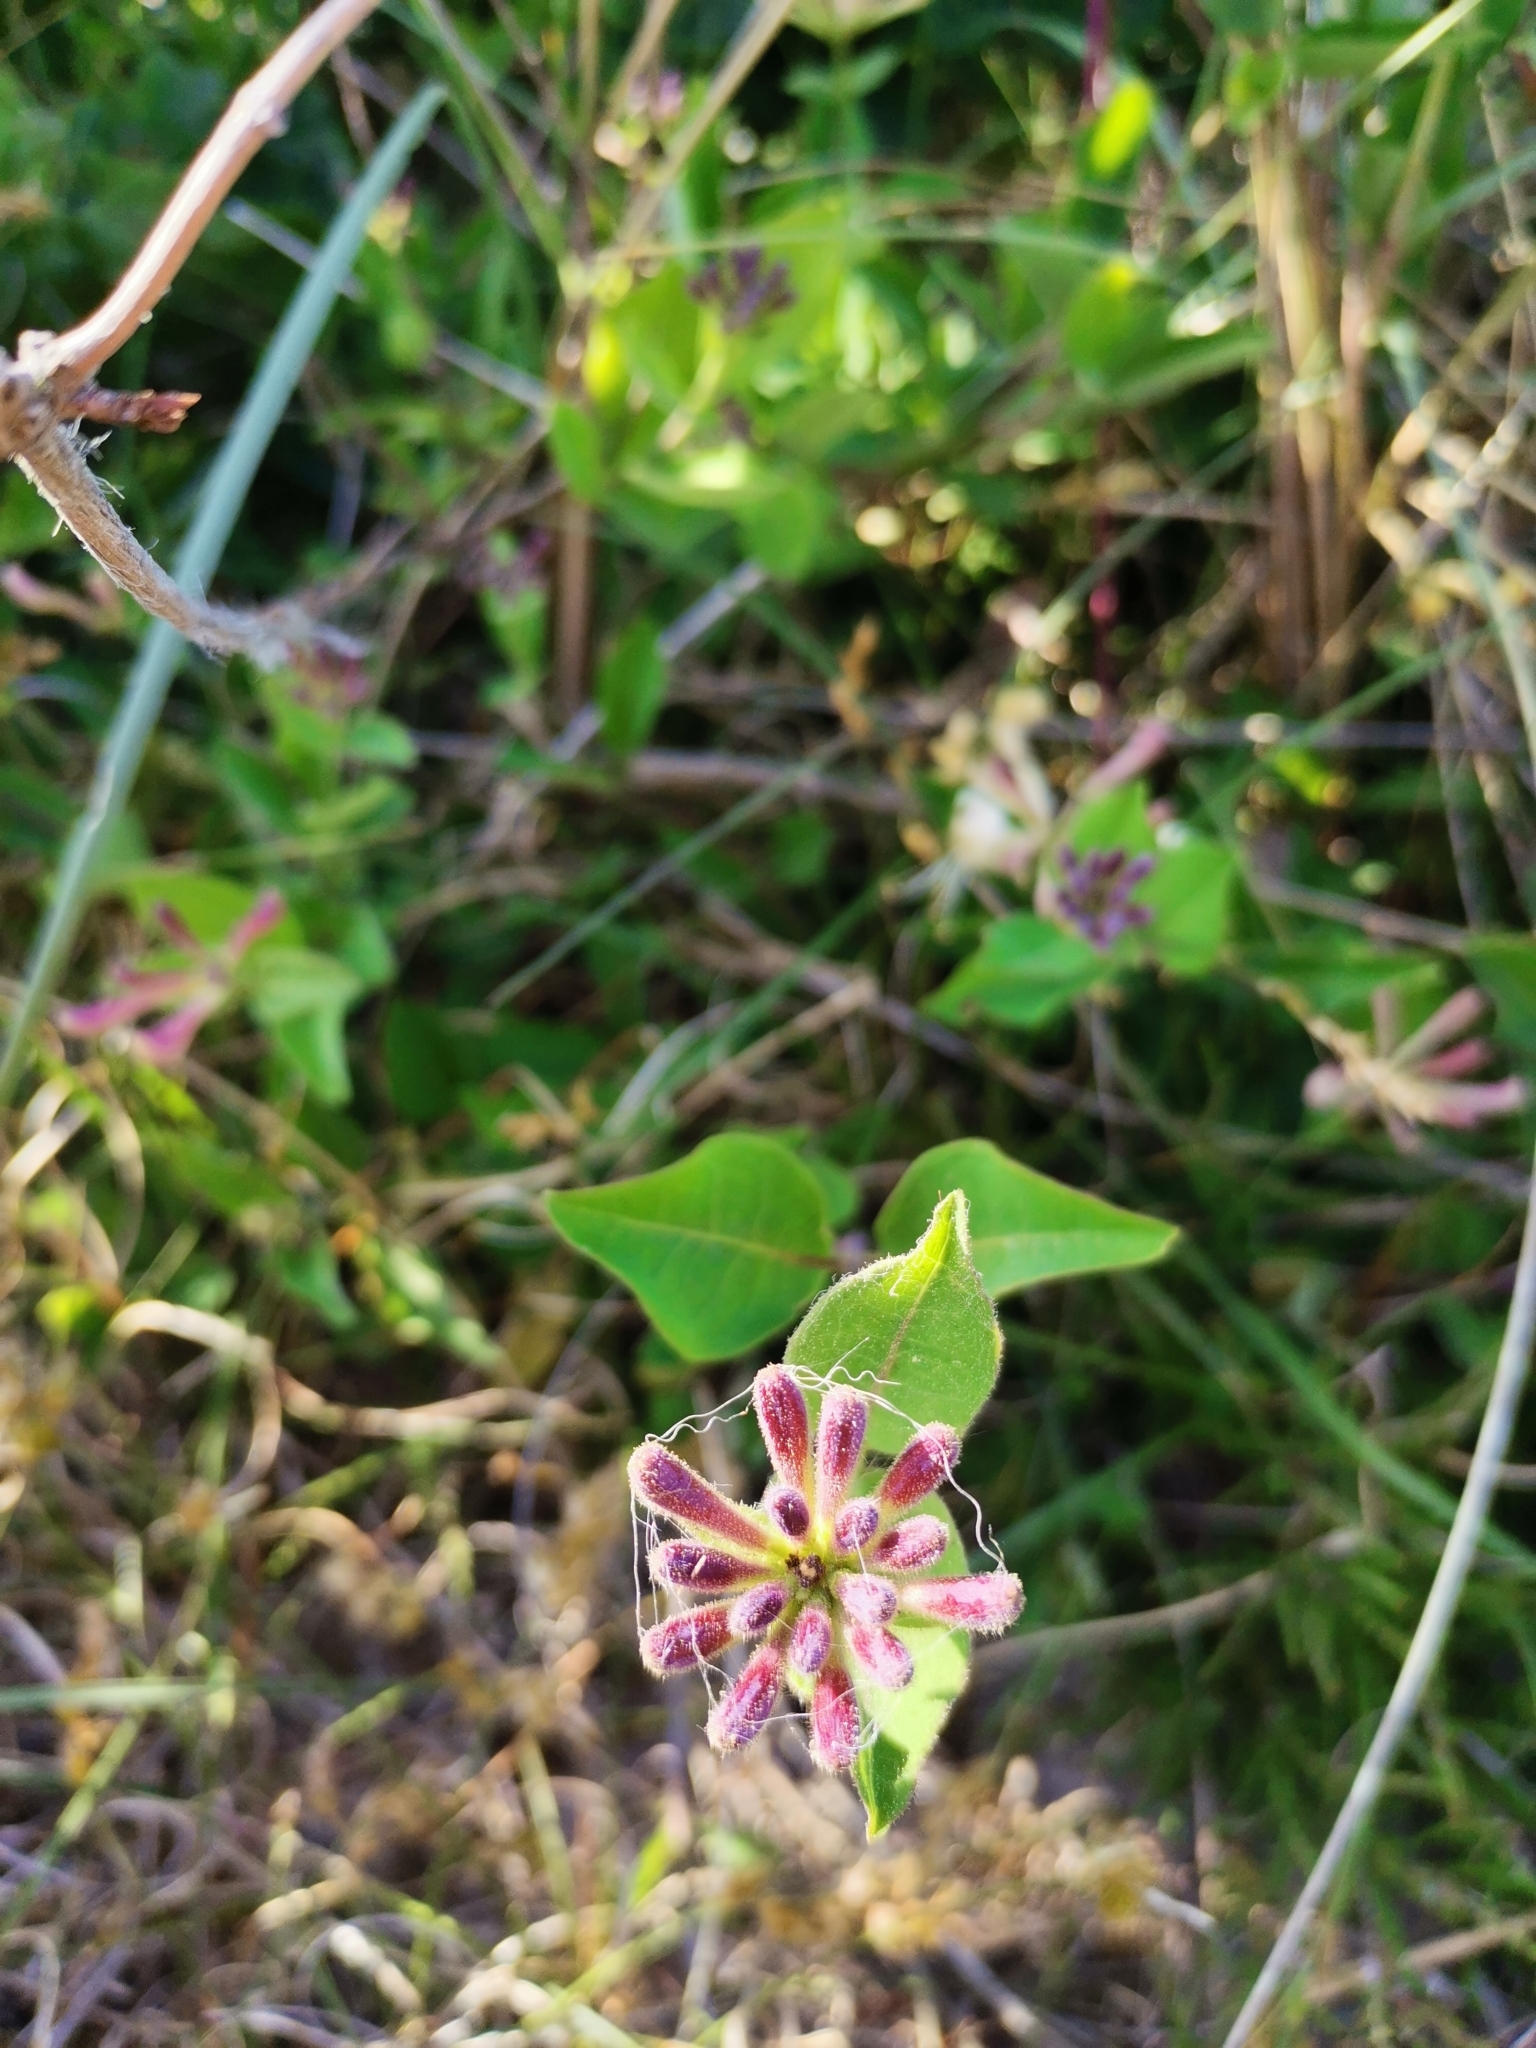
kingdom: Plantae
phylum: Tracheophyta
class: Magnoliopsida
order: Dipsacales
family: Caprifoliaceae
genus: Lonicera
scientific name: Lonicera periclymenum
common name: European honeysuckle
